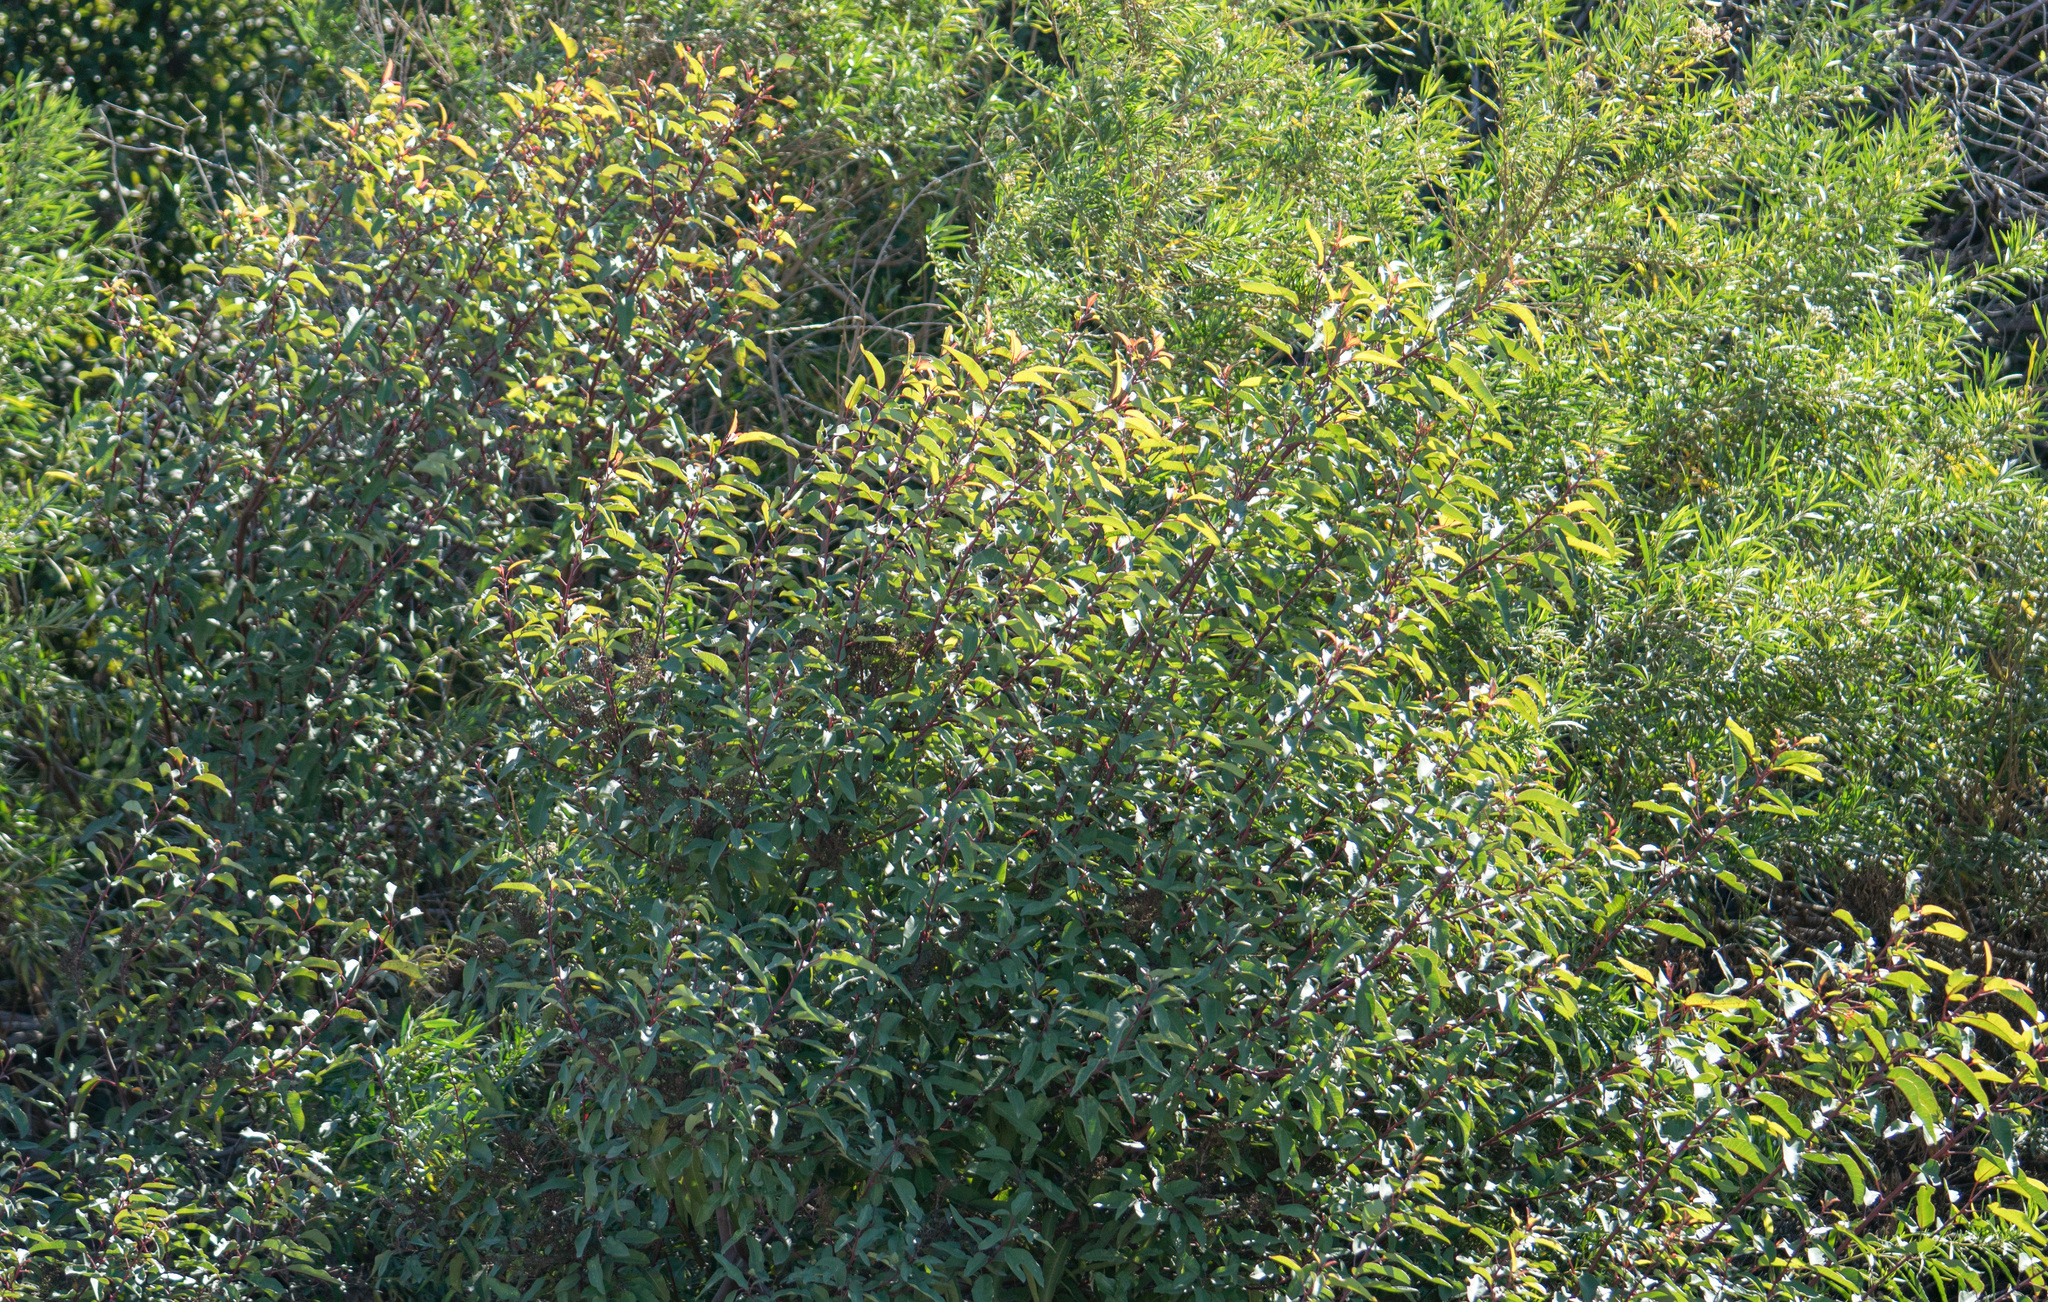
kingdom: Plantae
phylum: Tracheophyta
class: Magnoliopsida
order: Sapindales
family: Anacardiaceae
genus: Malosma
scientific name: Malosma laurina
